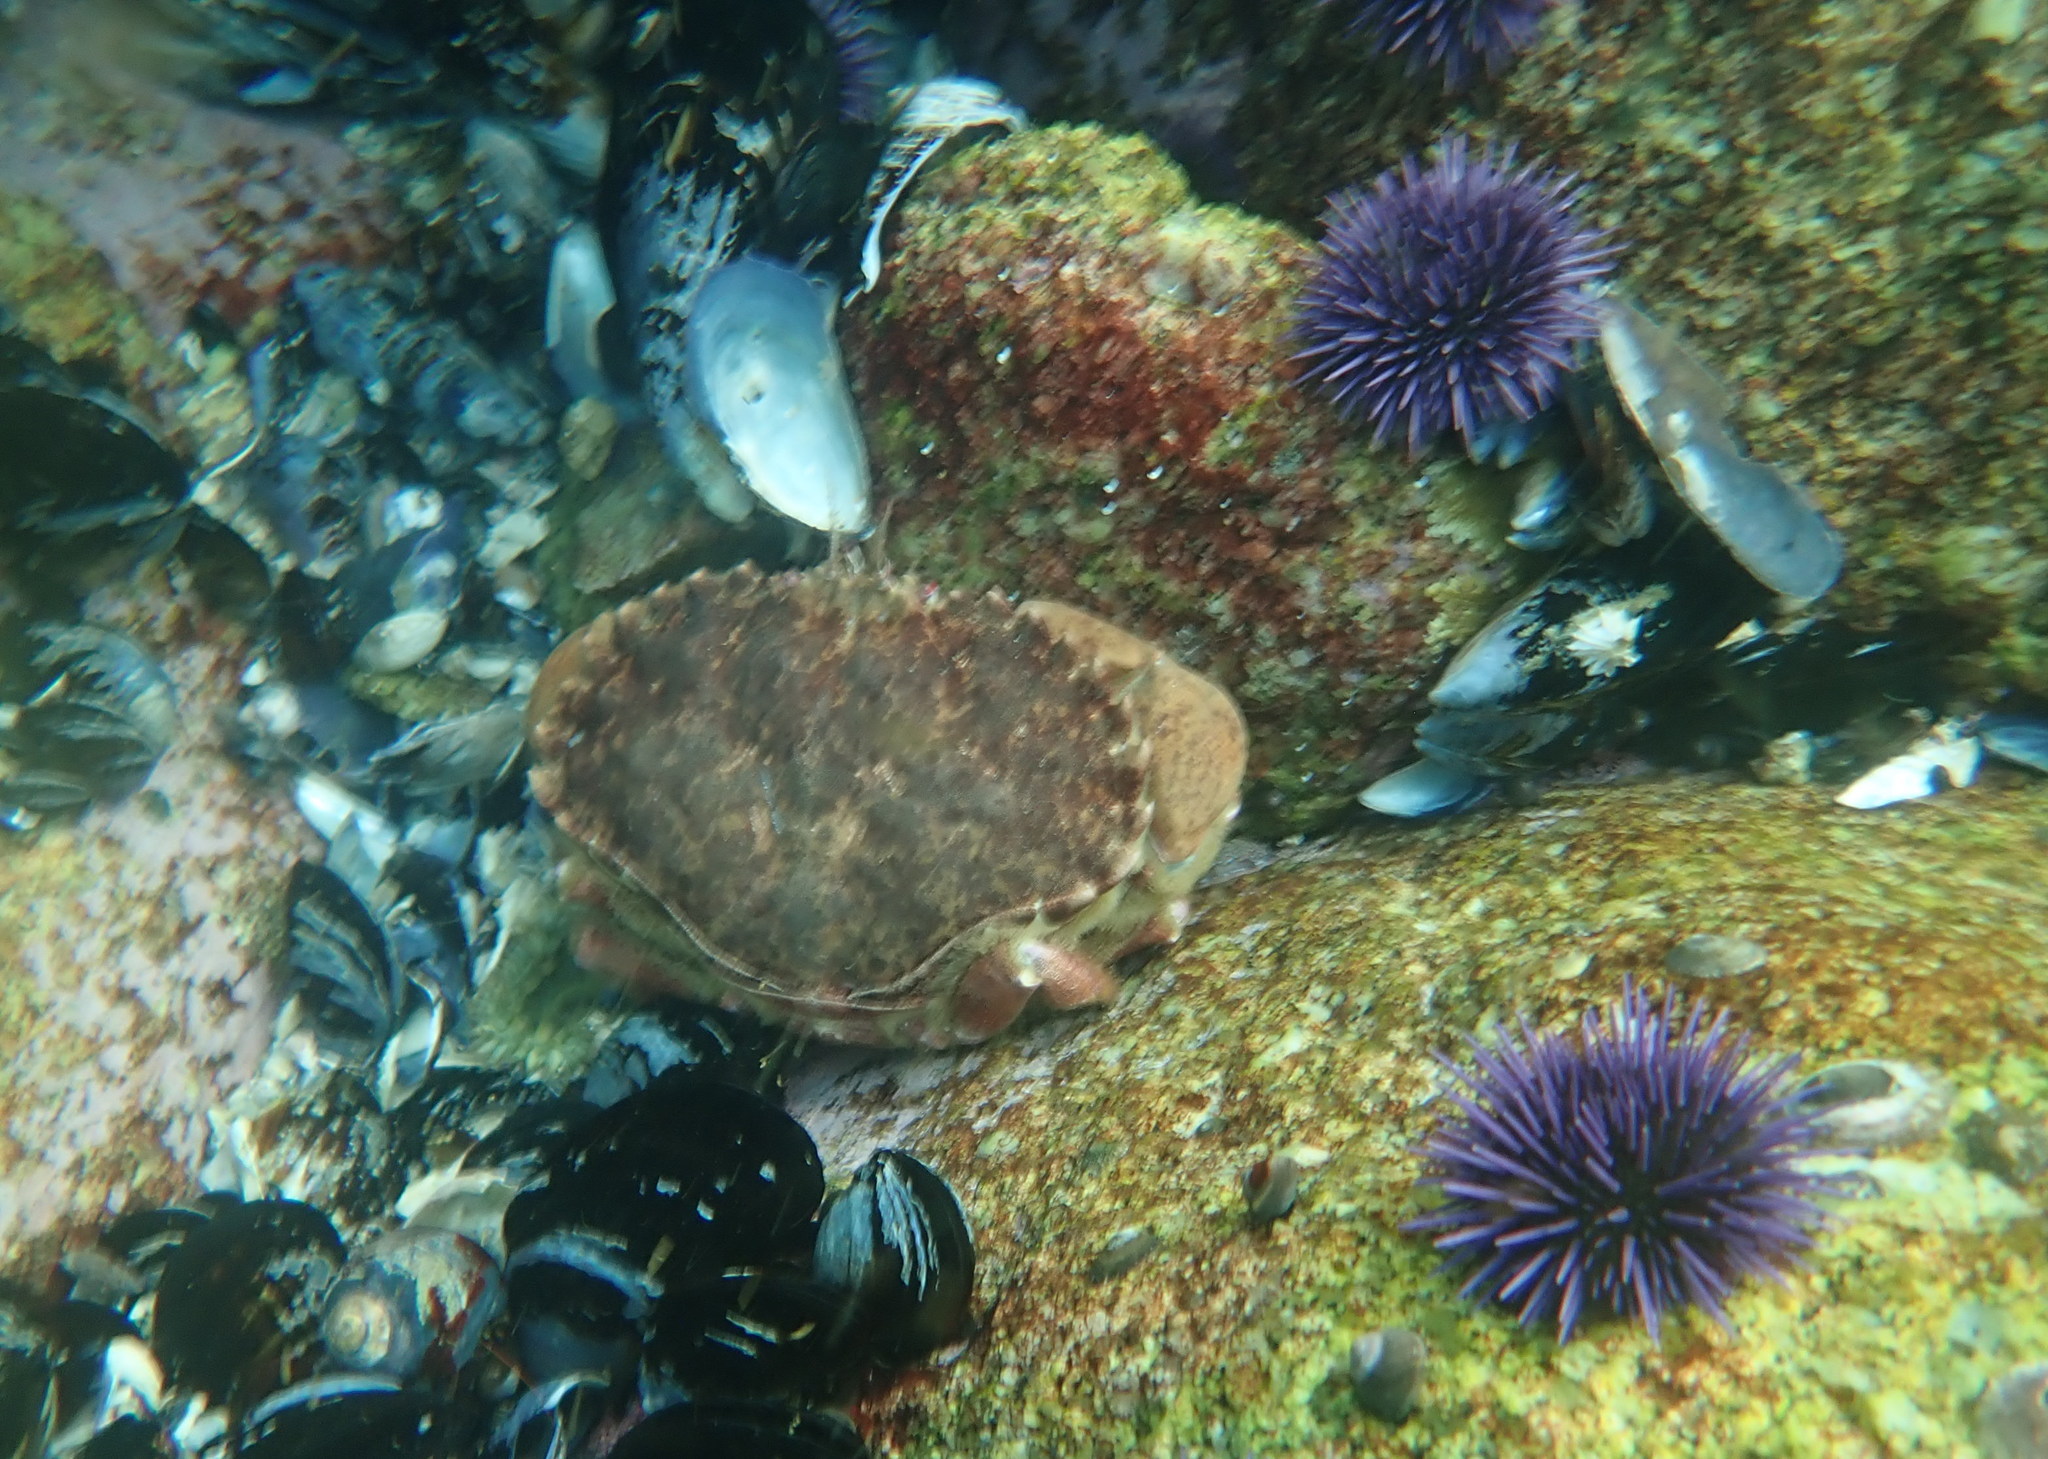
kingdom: Animalia
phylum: Arthropoda
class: Malacostraca
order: Decapoda
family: Cancridae
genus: Romaleon
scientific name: Romaleon antennarium
